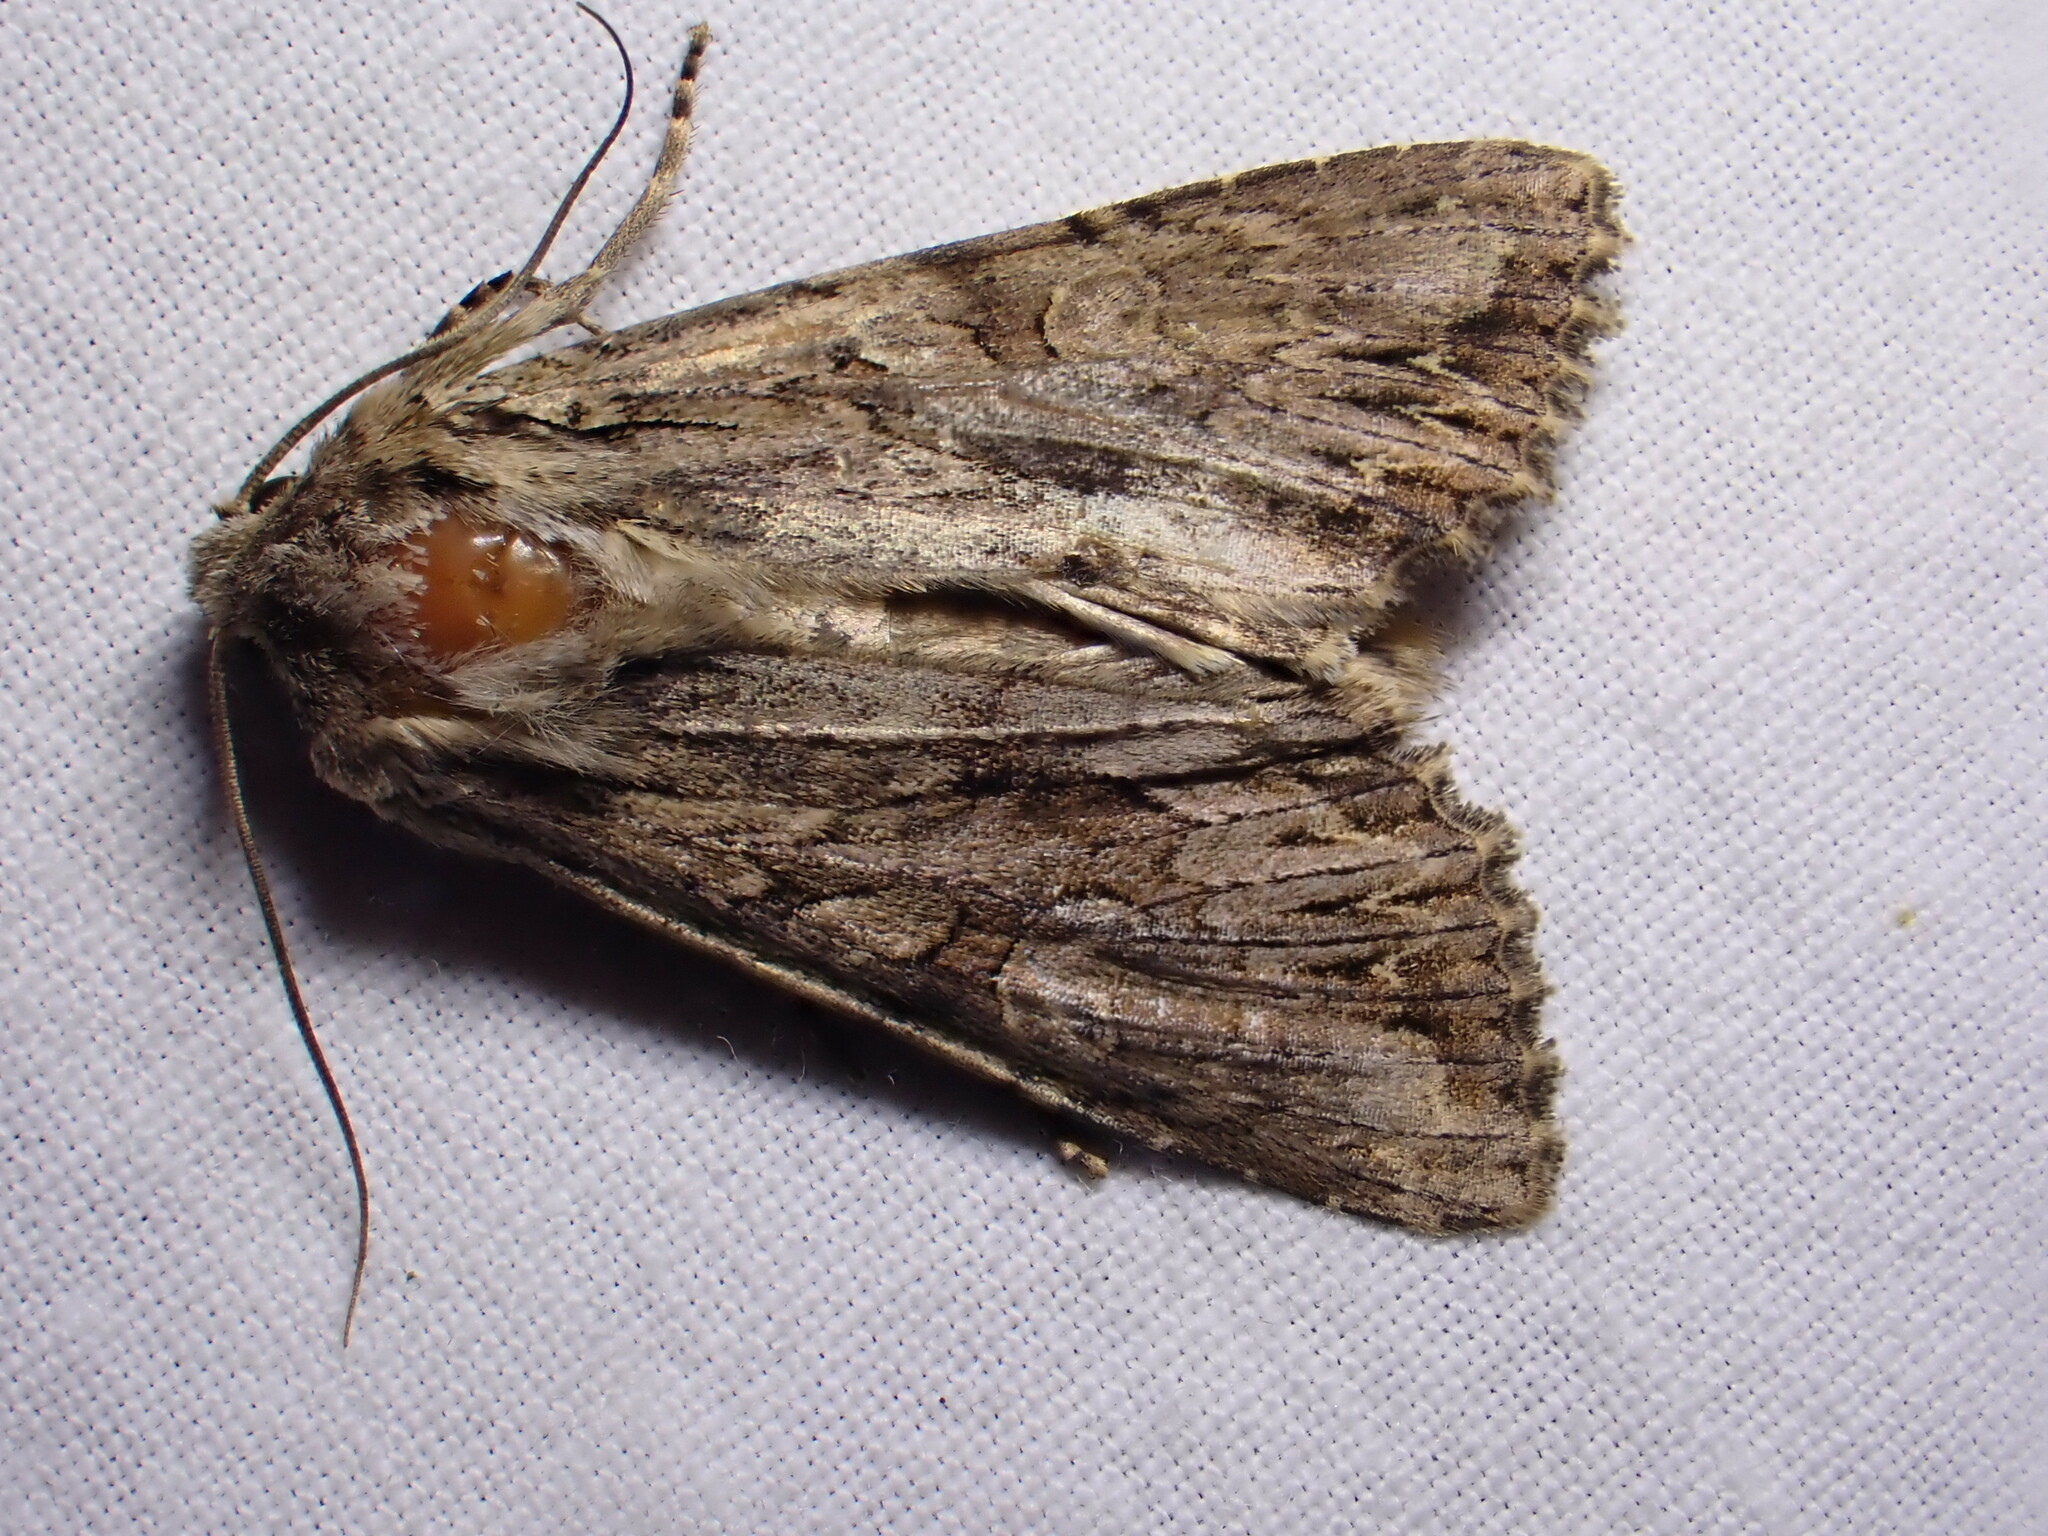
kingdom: Animalia
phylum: Arthropoda
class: Insecta
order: Lepidoptera
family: Noctuidae
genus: Apamea
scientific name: Apamea monoglypha
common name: Dark arches
